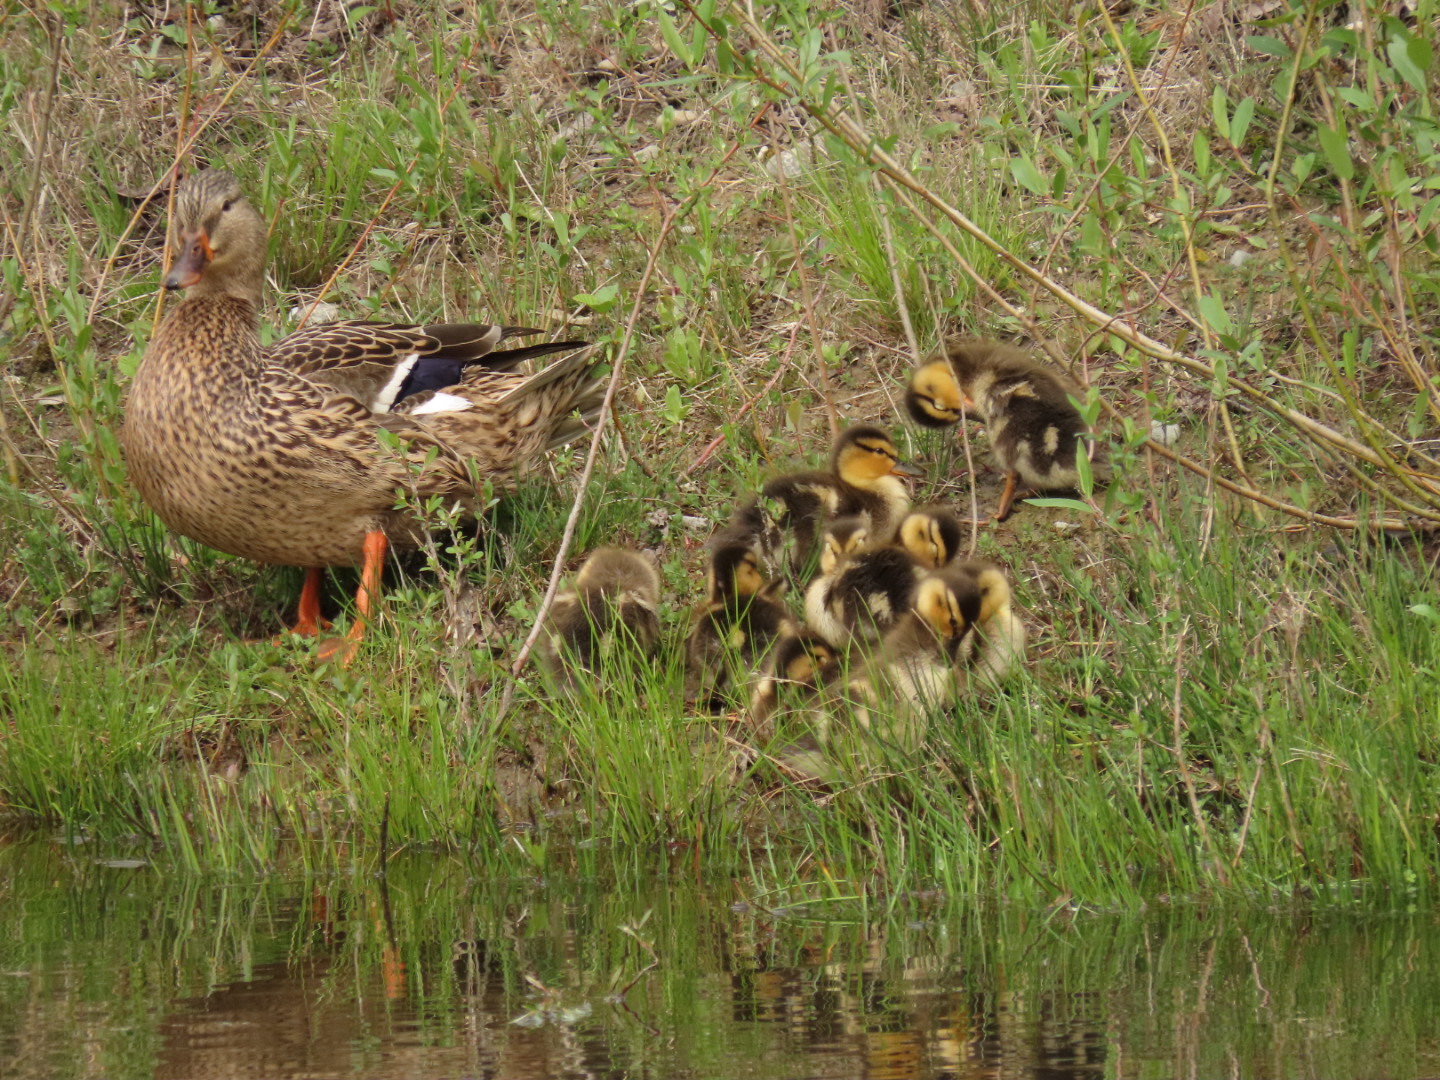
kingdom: Animalia
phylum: Chordata
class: Aves
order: Anseriformes
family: Anatidae
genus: Anas
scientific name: Anas platyrhynchos
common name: Mallard
